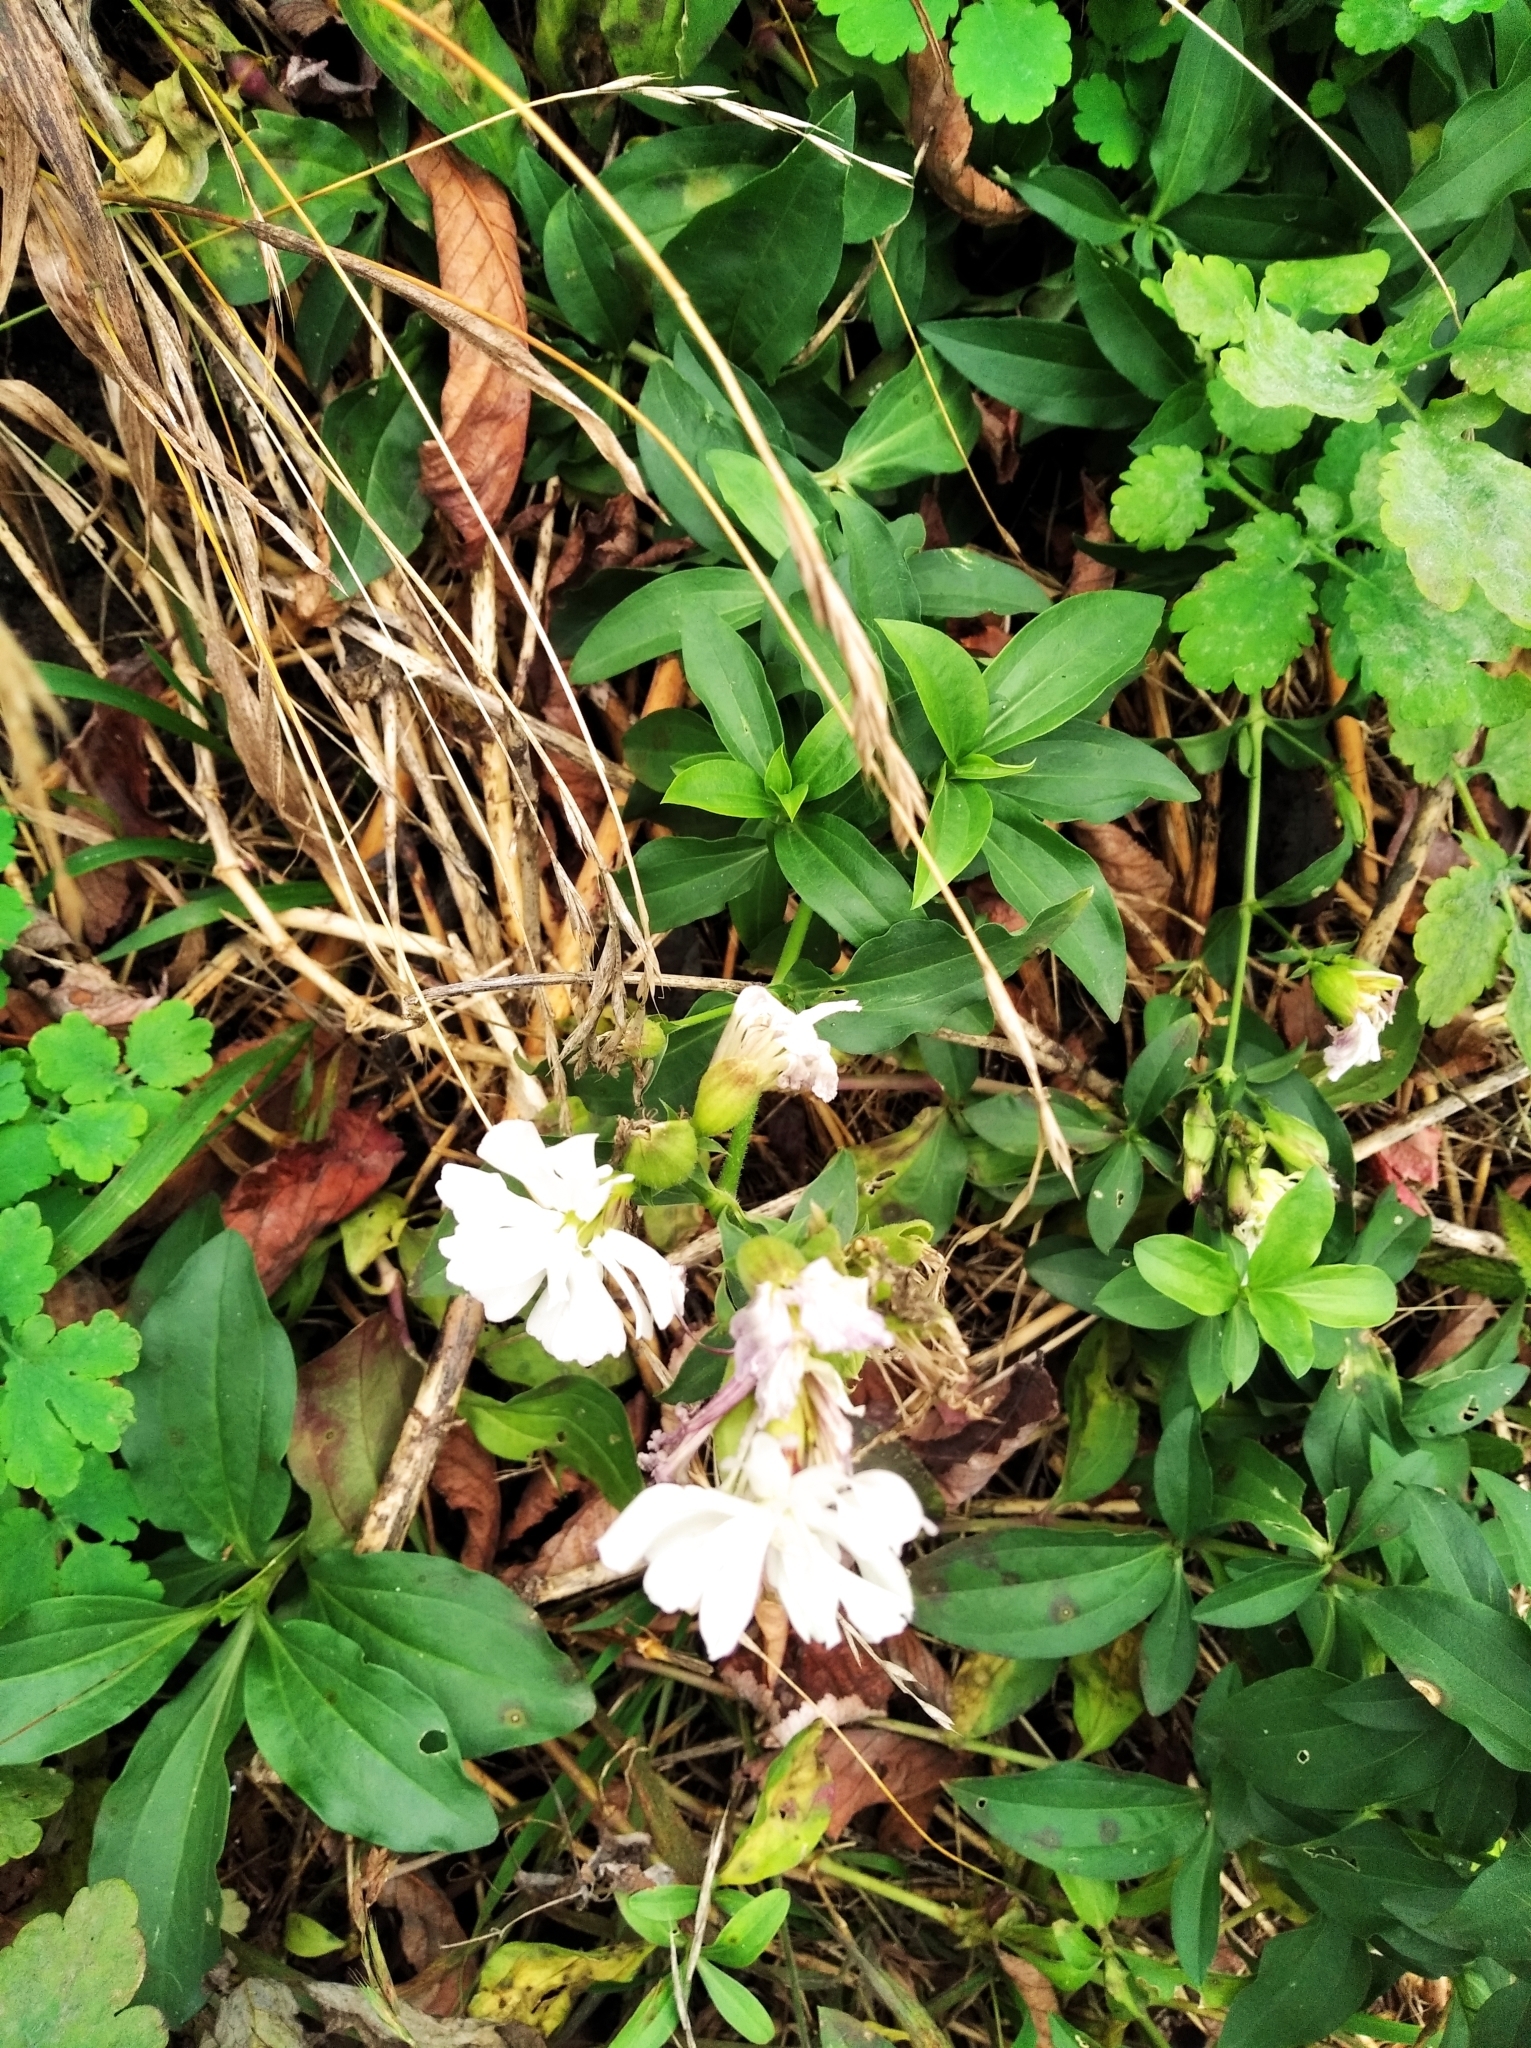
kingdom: Plantae
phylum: Tracheophyta
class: Magnoliopsida
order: Caryophyllales
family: Caryophyllaceae
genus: Saponaria
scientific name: Saponaria officinalis
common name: Soapwort
